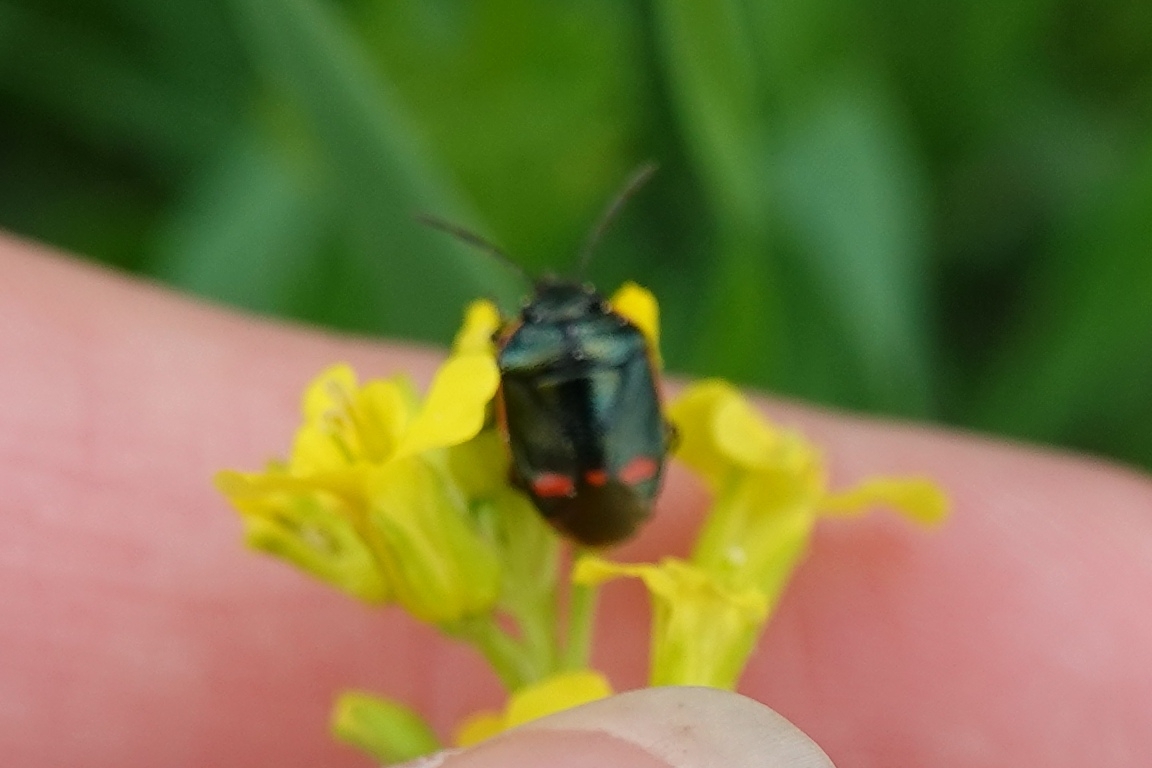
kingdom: Animalia
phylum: Arthropoda
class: Insecta
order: Hemiptera
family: Pentatomidae
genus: Eurydema
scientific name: Eurydema oleracea
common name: Cabbage bug
